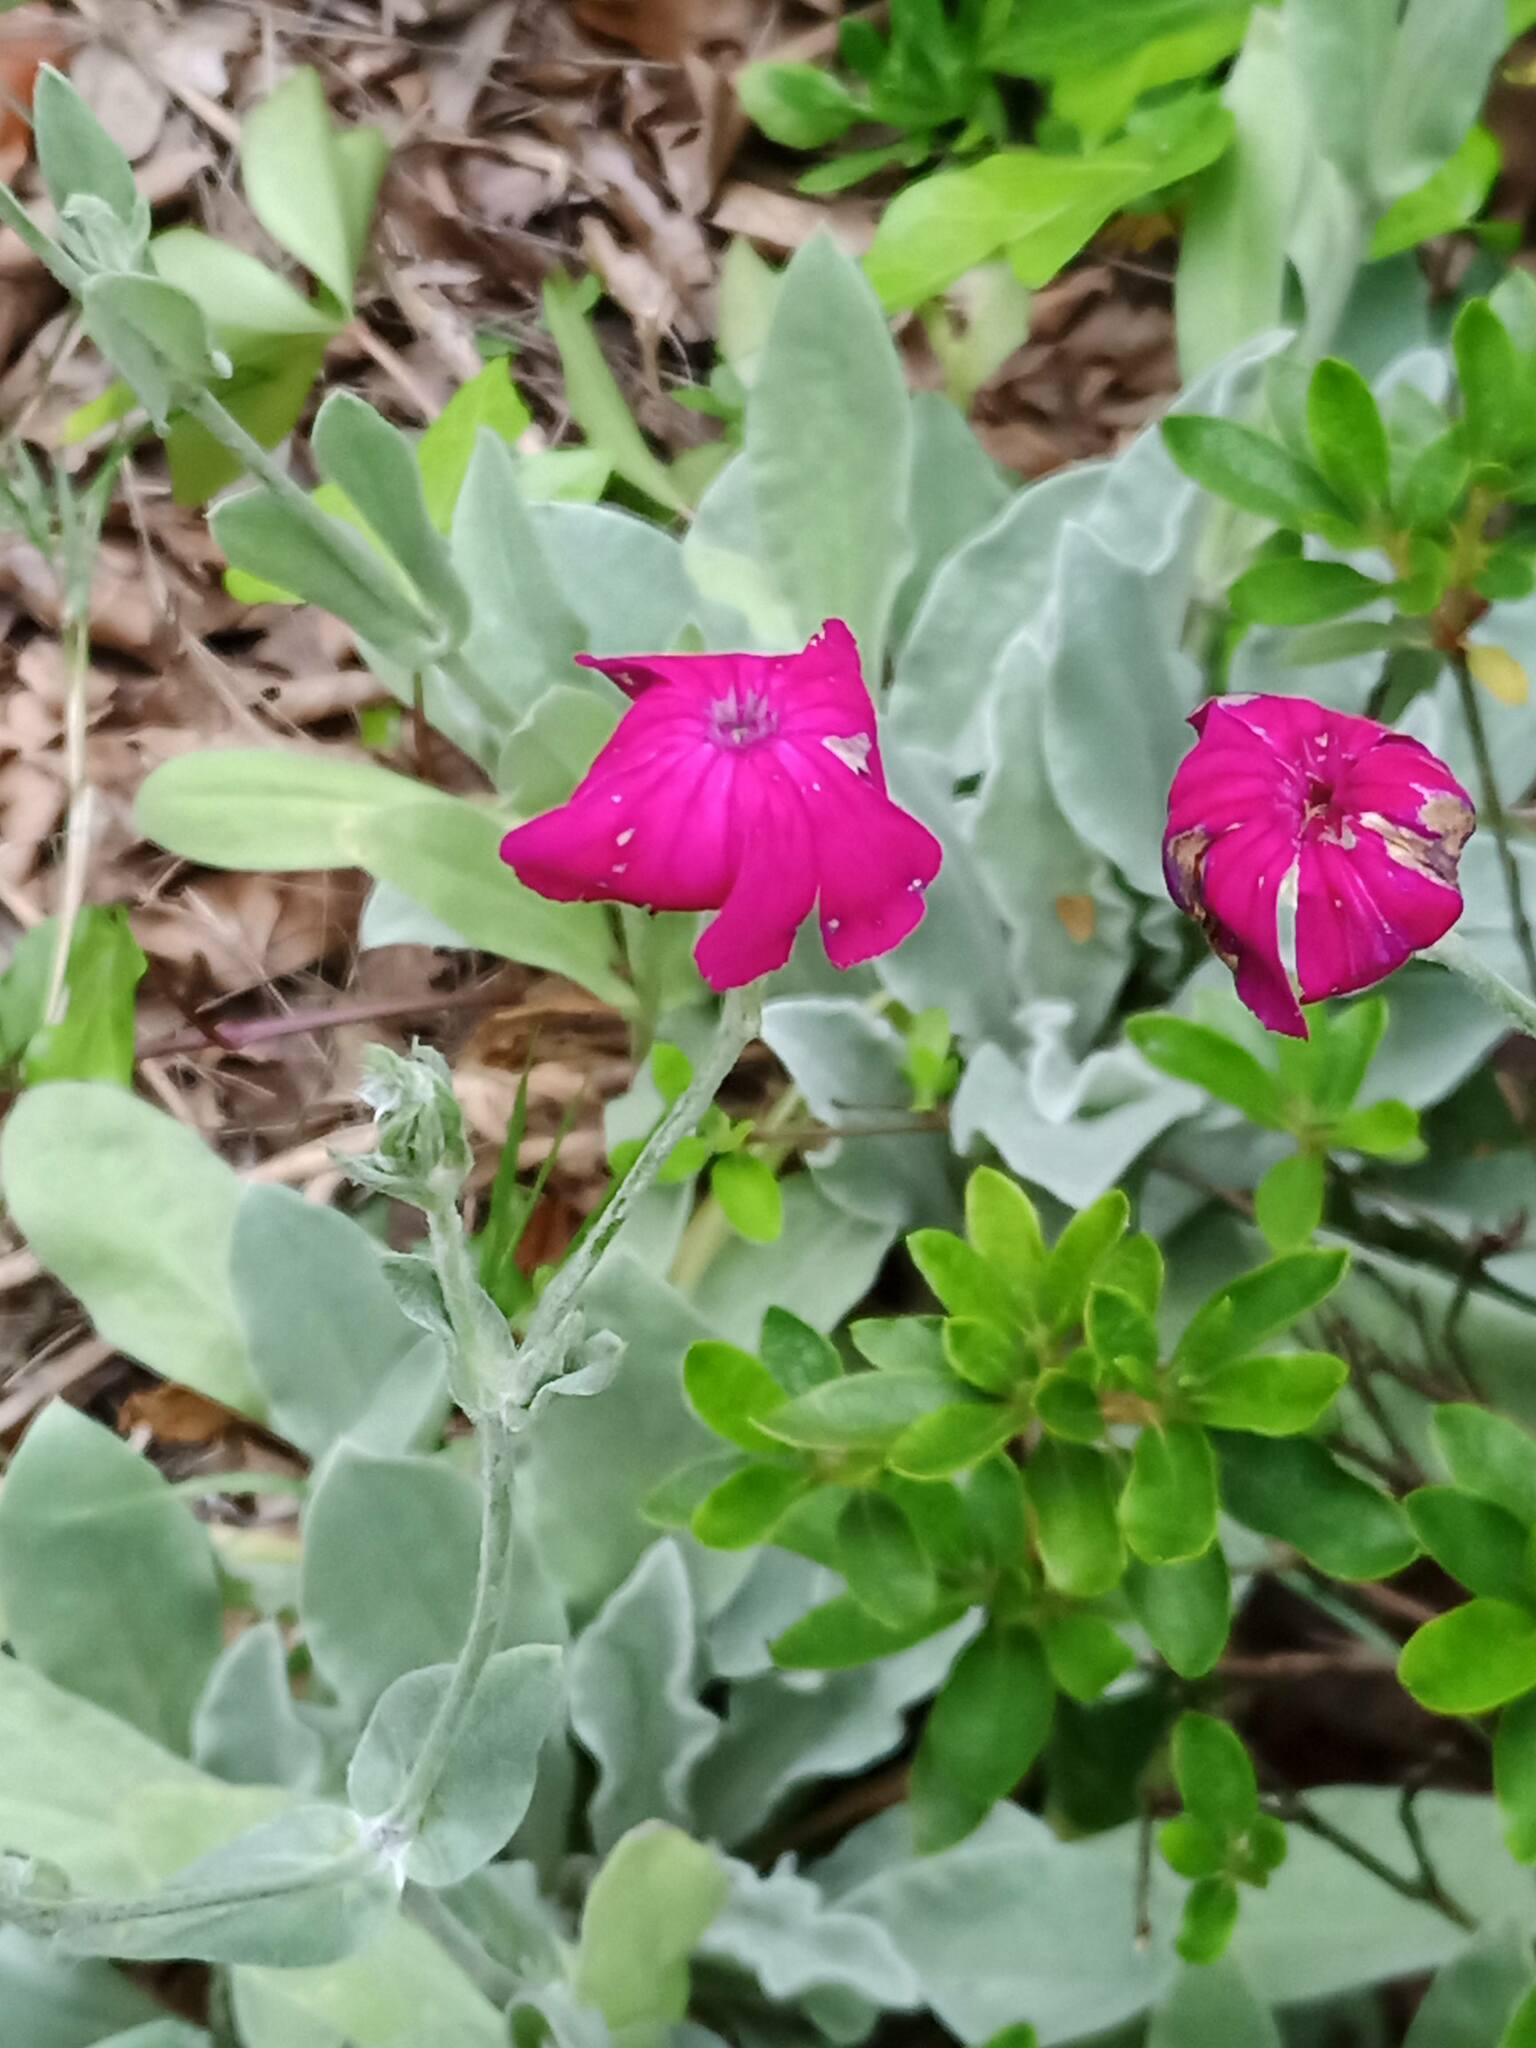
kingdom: Plantae
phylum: Tracheophyta
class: Magnoliopsida
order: Caryophyllales
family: Caryophyllaceae
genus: Silene
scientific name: Silene coronaria
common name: Rose campion
